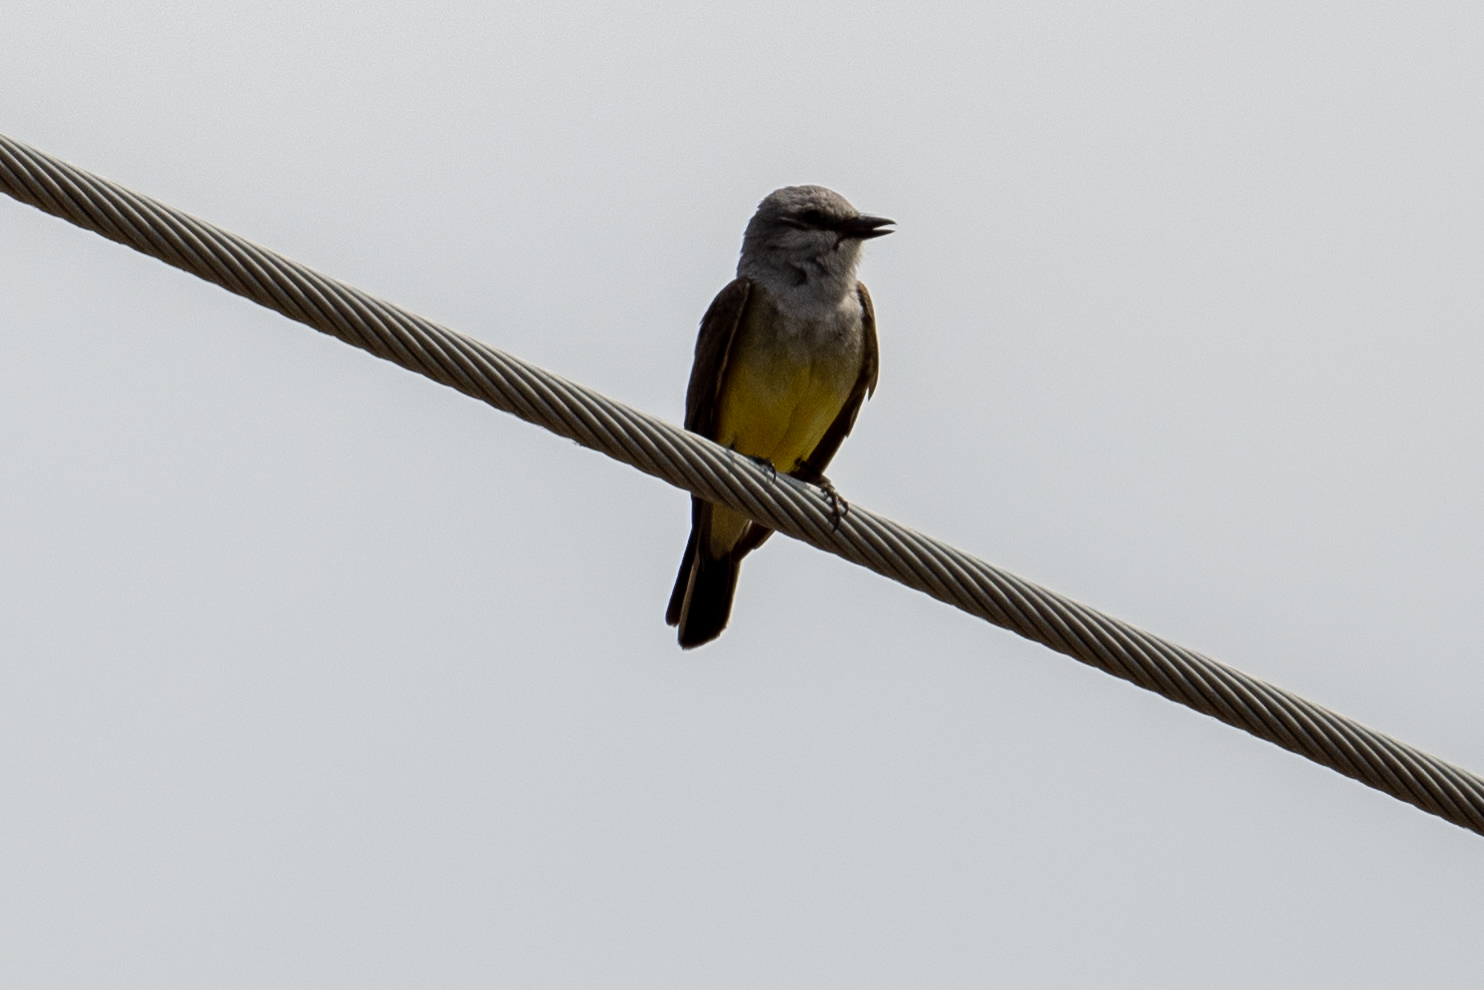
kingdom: Animalia
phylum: Chordata
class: Aves
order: Passeriformes
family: Tyrannidae
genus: Tyrannus
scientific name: Tyrannus verticalis
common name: Western kingbird
